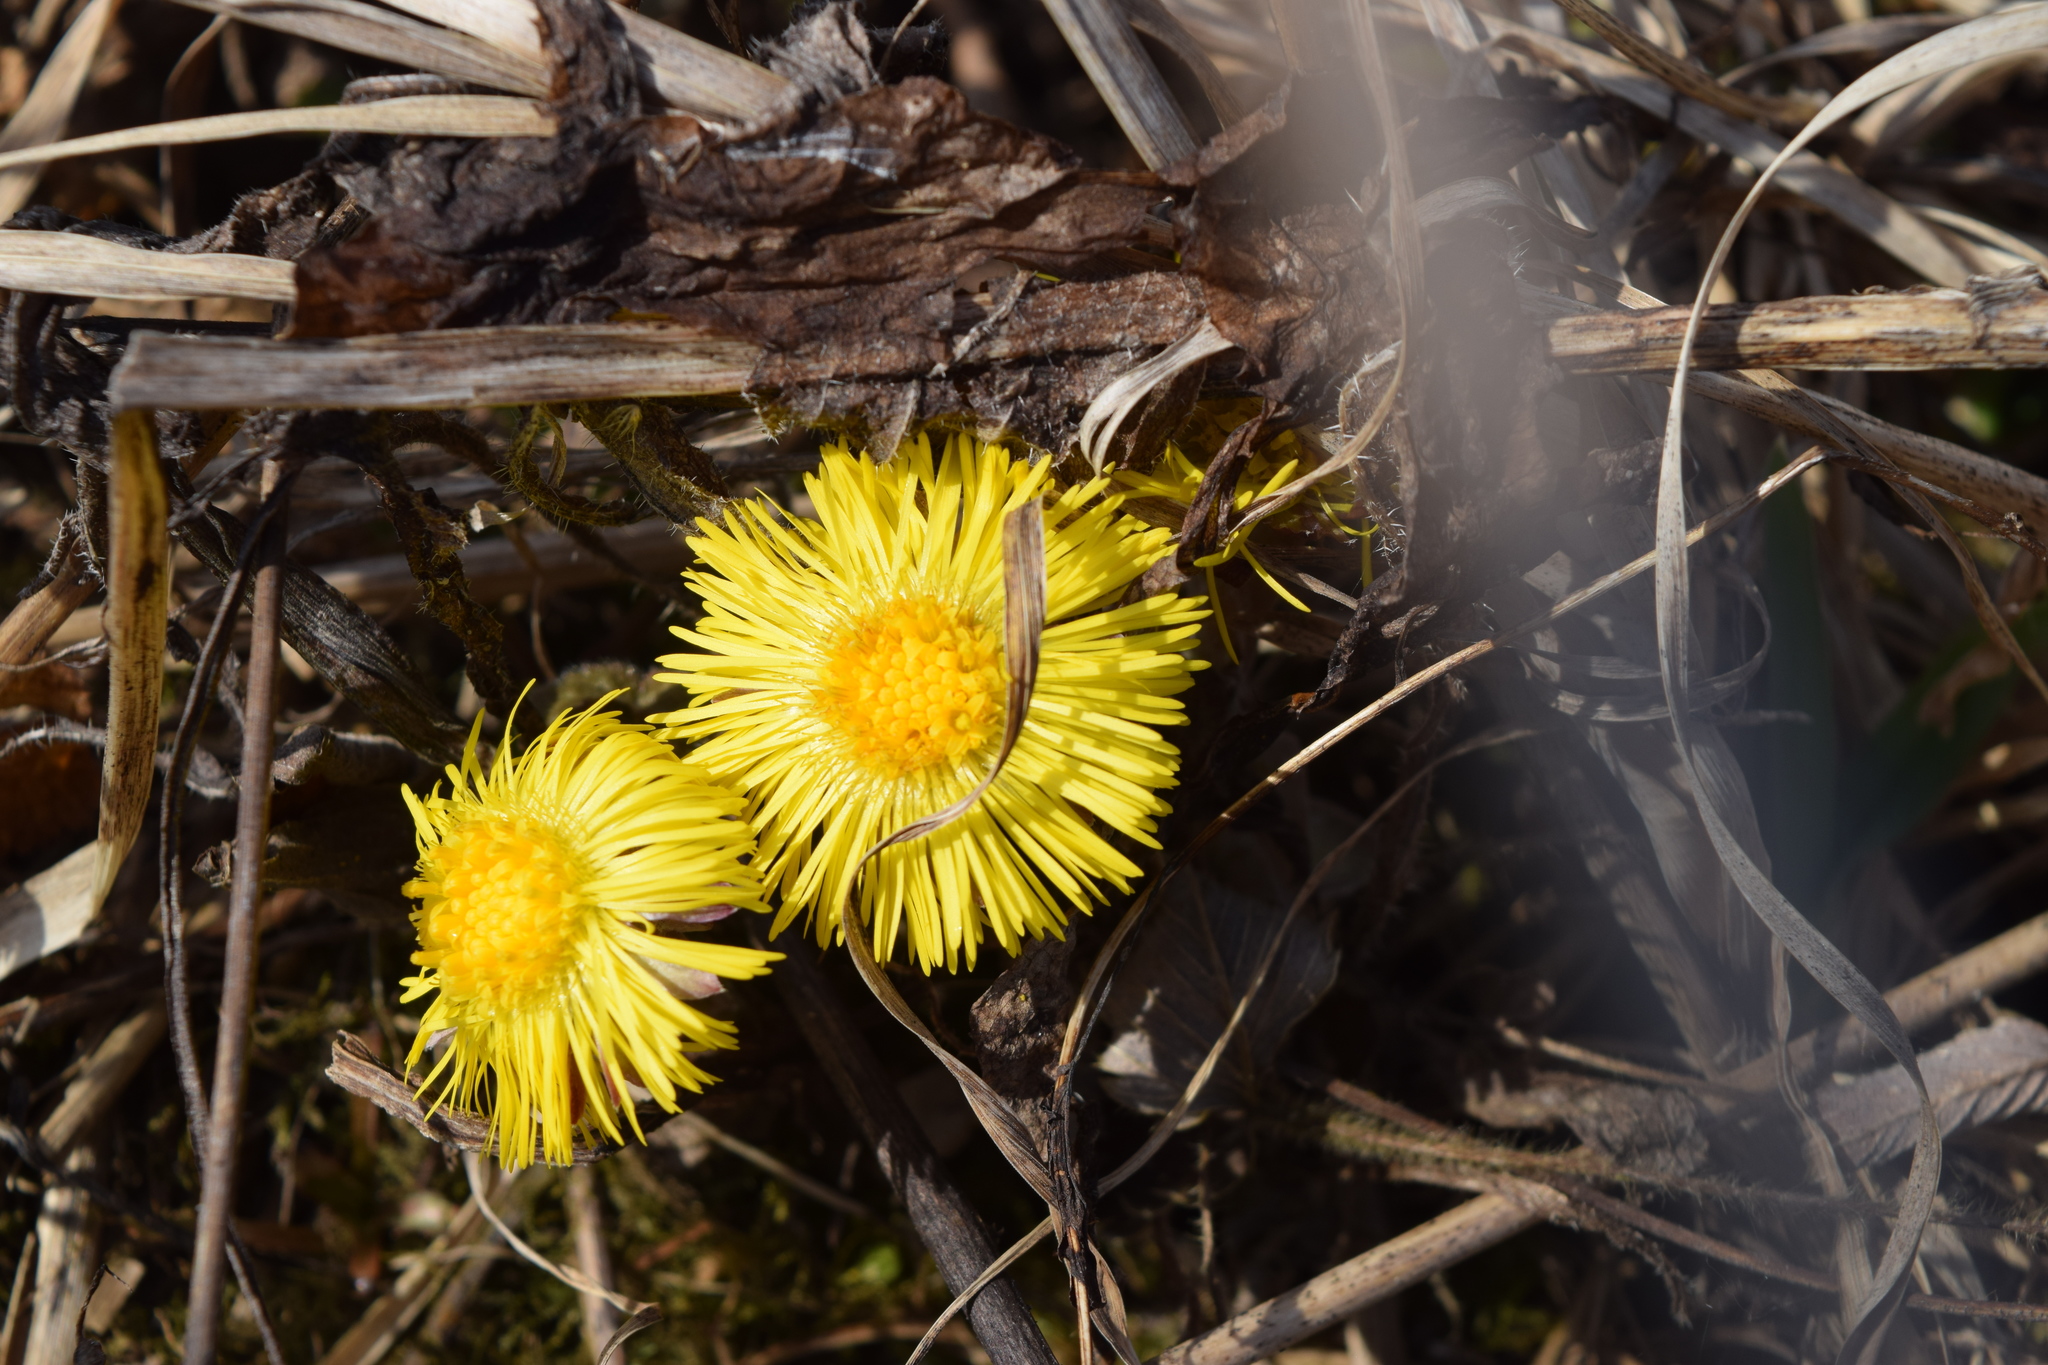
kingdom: Plantae
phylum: Tracheophyta
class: Magnoliopsida
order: Asterales
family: Asteraceae
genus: Tussilago
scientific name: Tussilago farfara
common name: Coltsfoot
